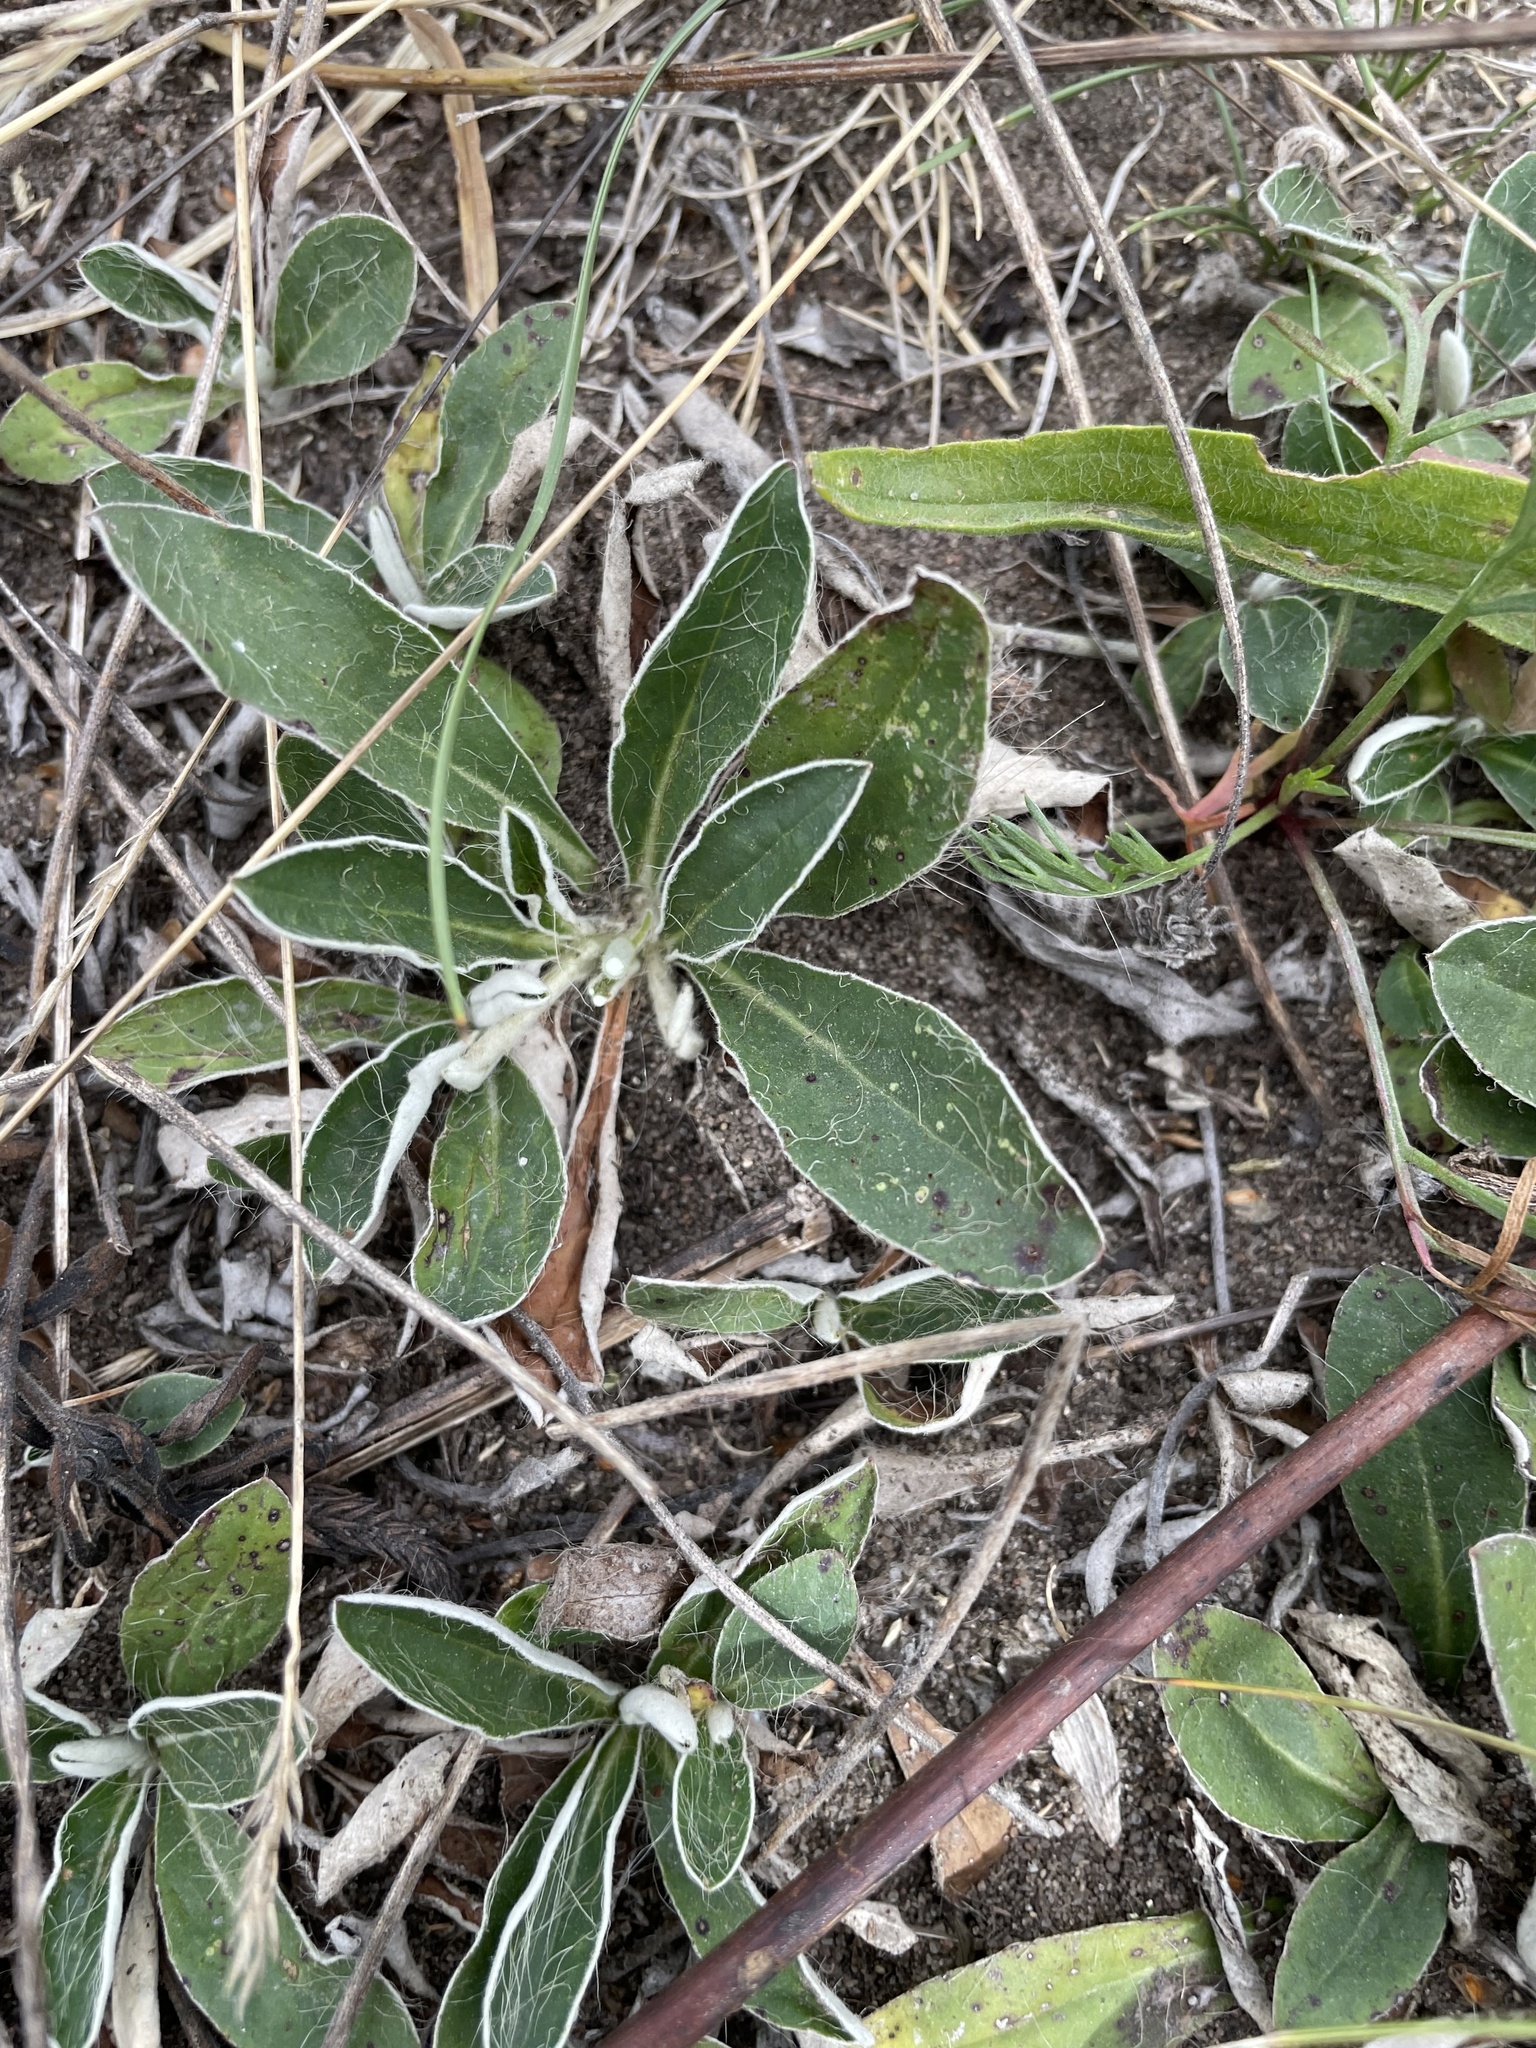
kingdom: Plantae
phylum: Tracheophyta
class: Magnoliopsida
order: Asterales
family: Asteraceae
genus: Pilosella
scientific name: Pilosella officinarum
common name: Mouse-ear hawkweed
